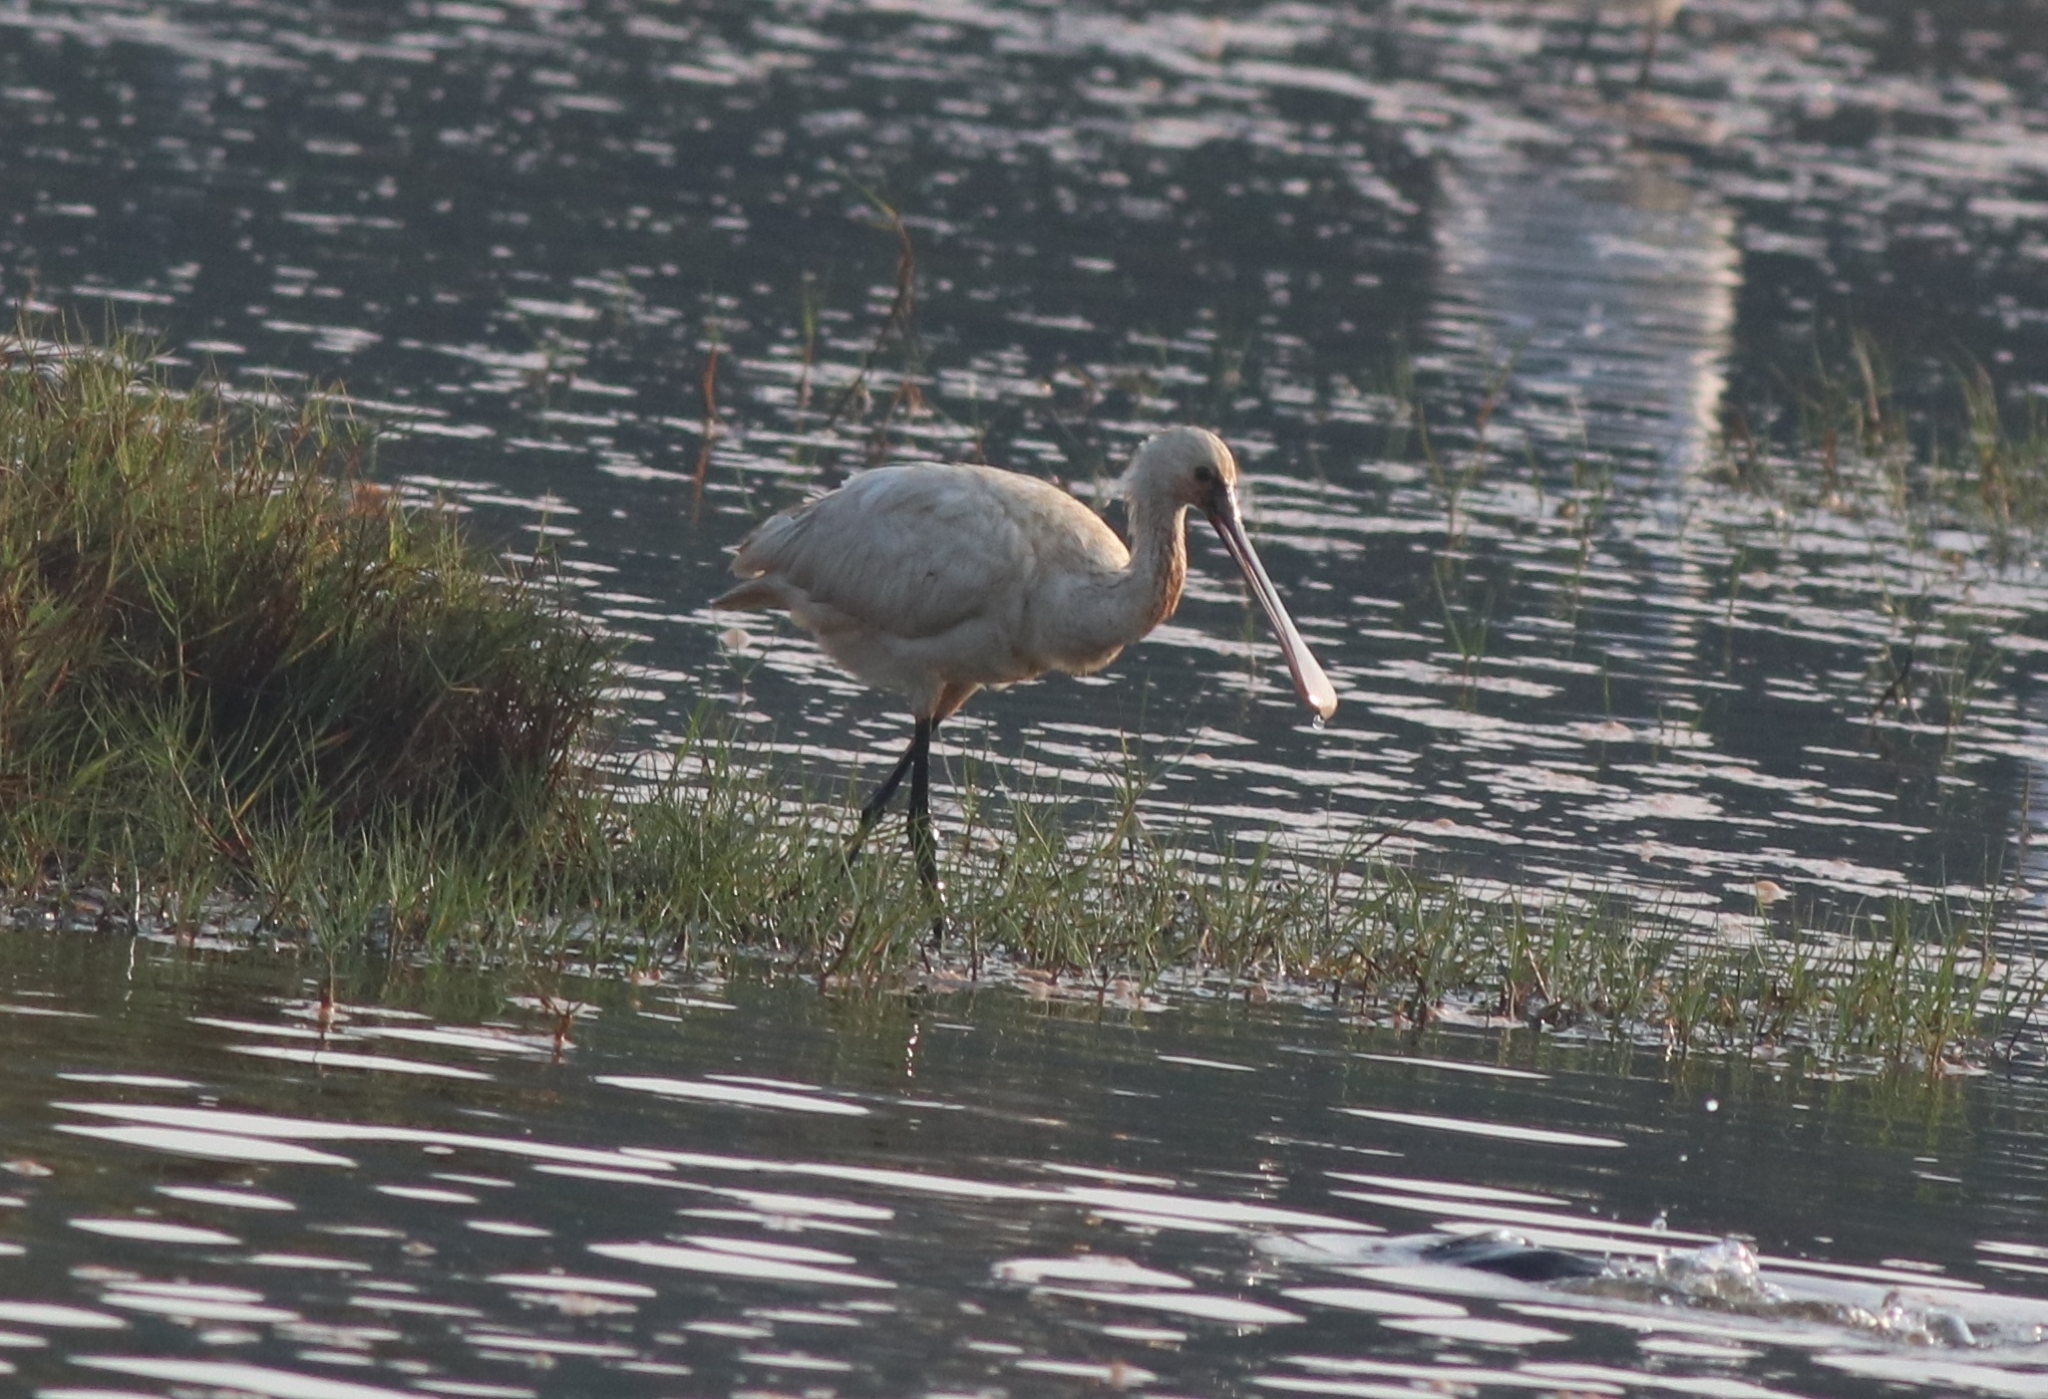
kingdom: Animalia
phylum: Chordata
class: Aves
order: Pelecaniformes
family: Threskiornithidae
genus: Platalea
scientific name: Platalea leucorodia
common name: Eurasian spoonbill
